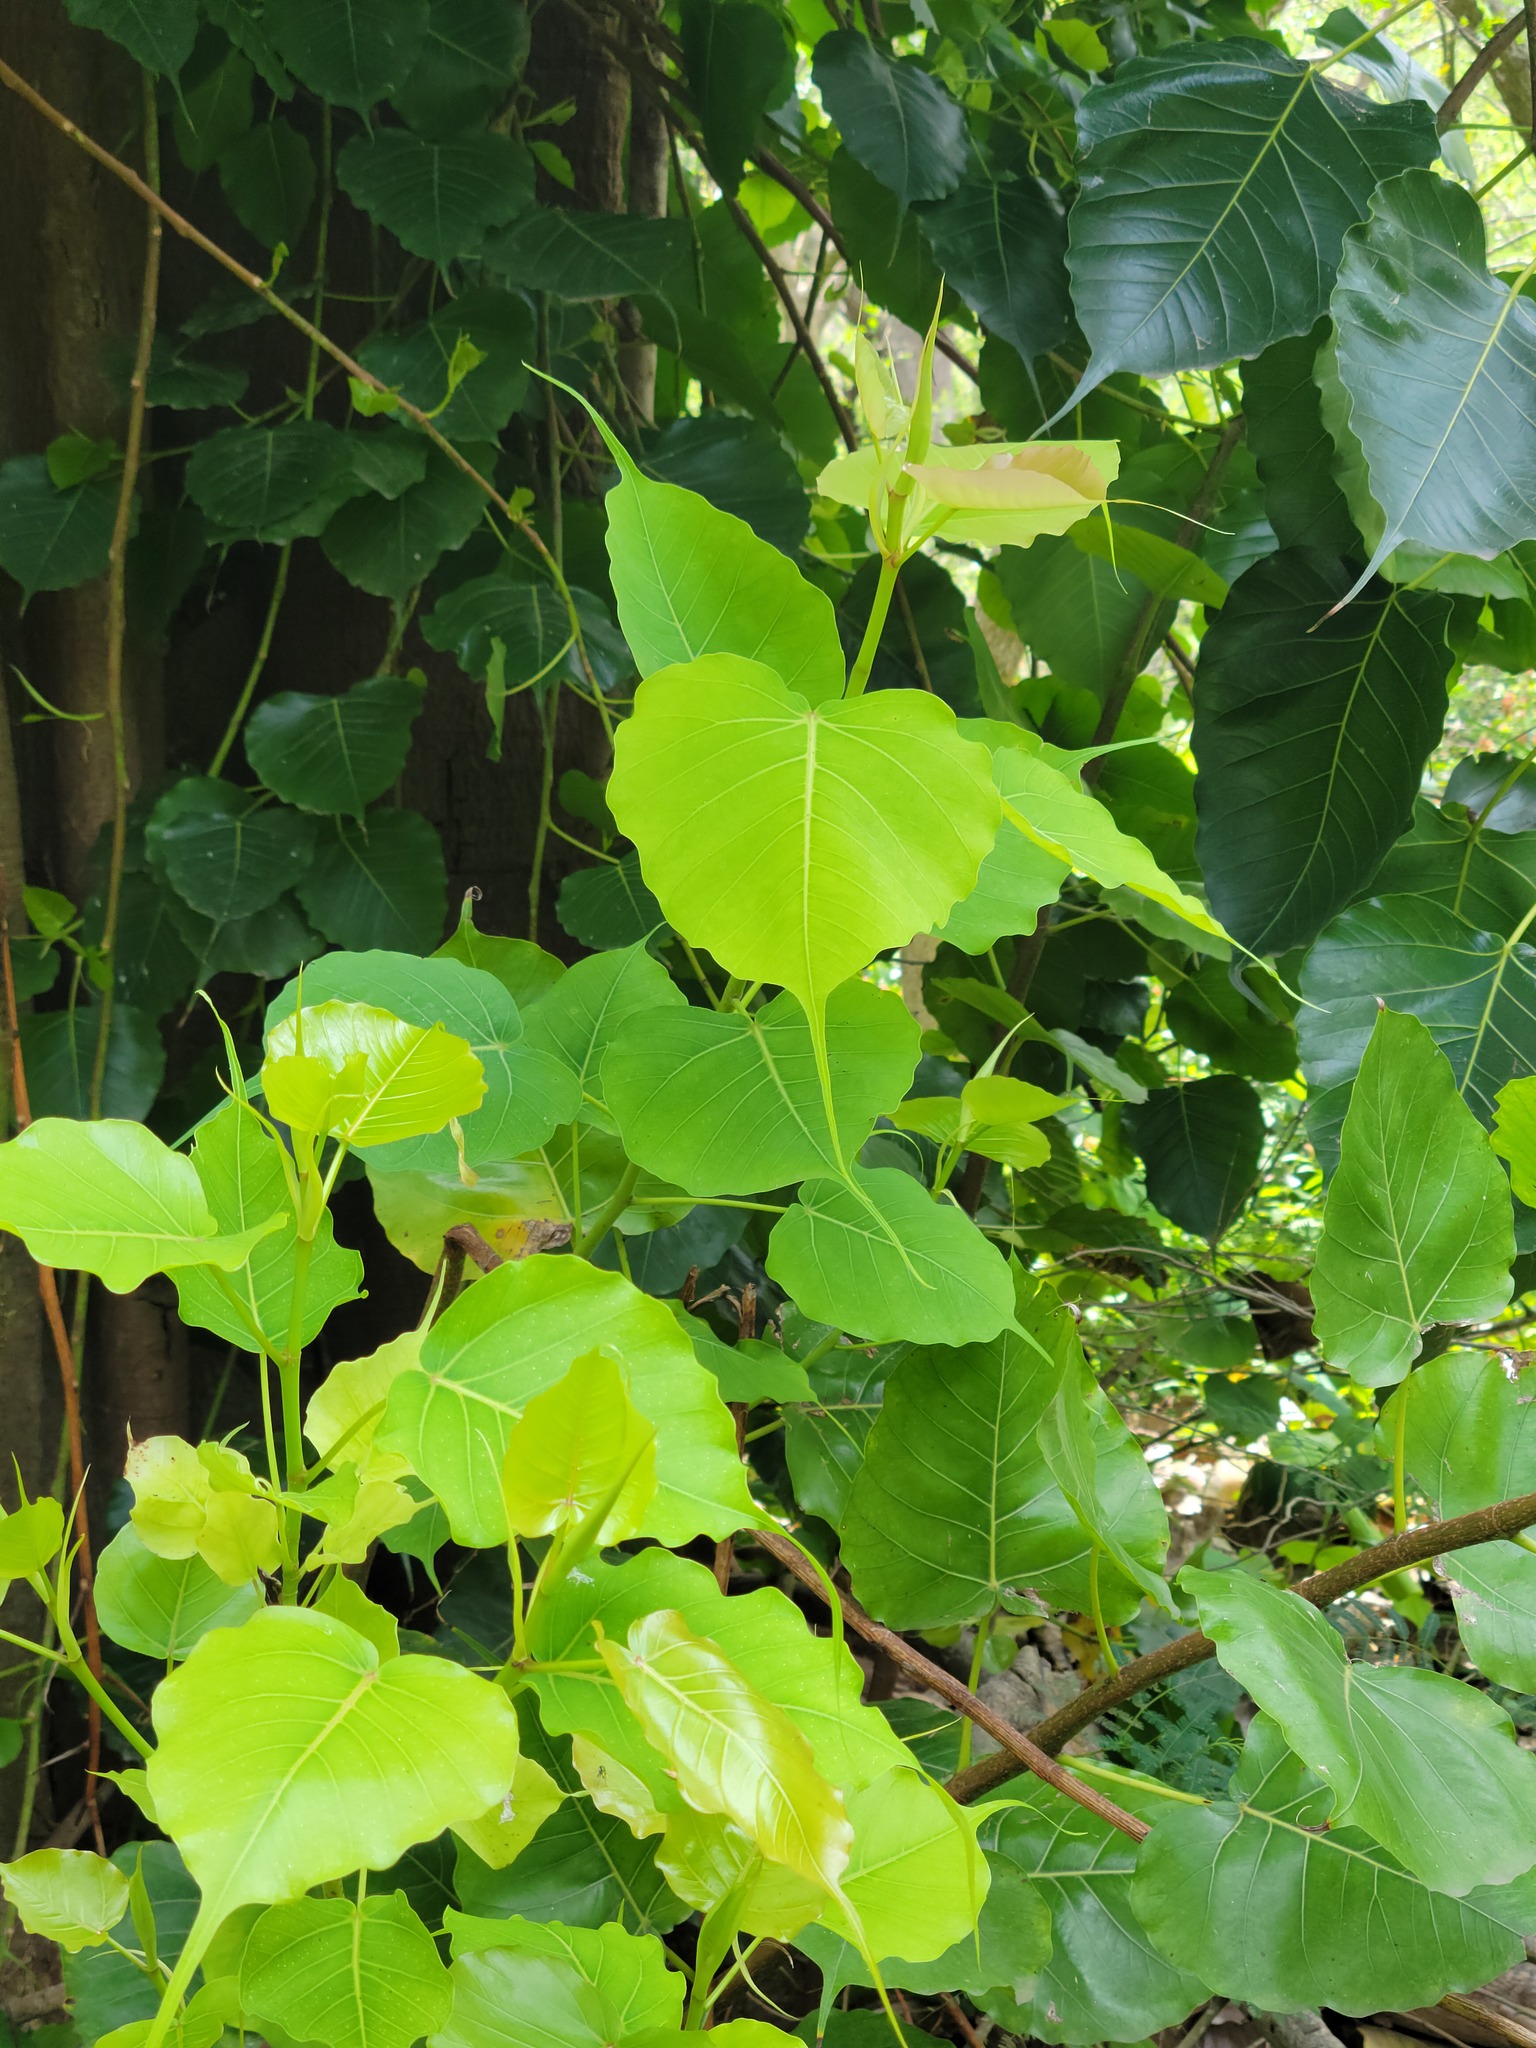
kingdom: Plantae
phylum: Tracheophyta
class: Magnoliopsida
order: Rosales
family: Moraceae
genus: Ficus
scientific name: Ficus religiosa
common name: Bodhi tree
